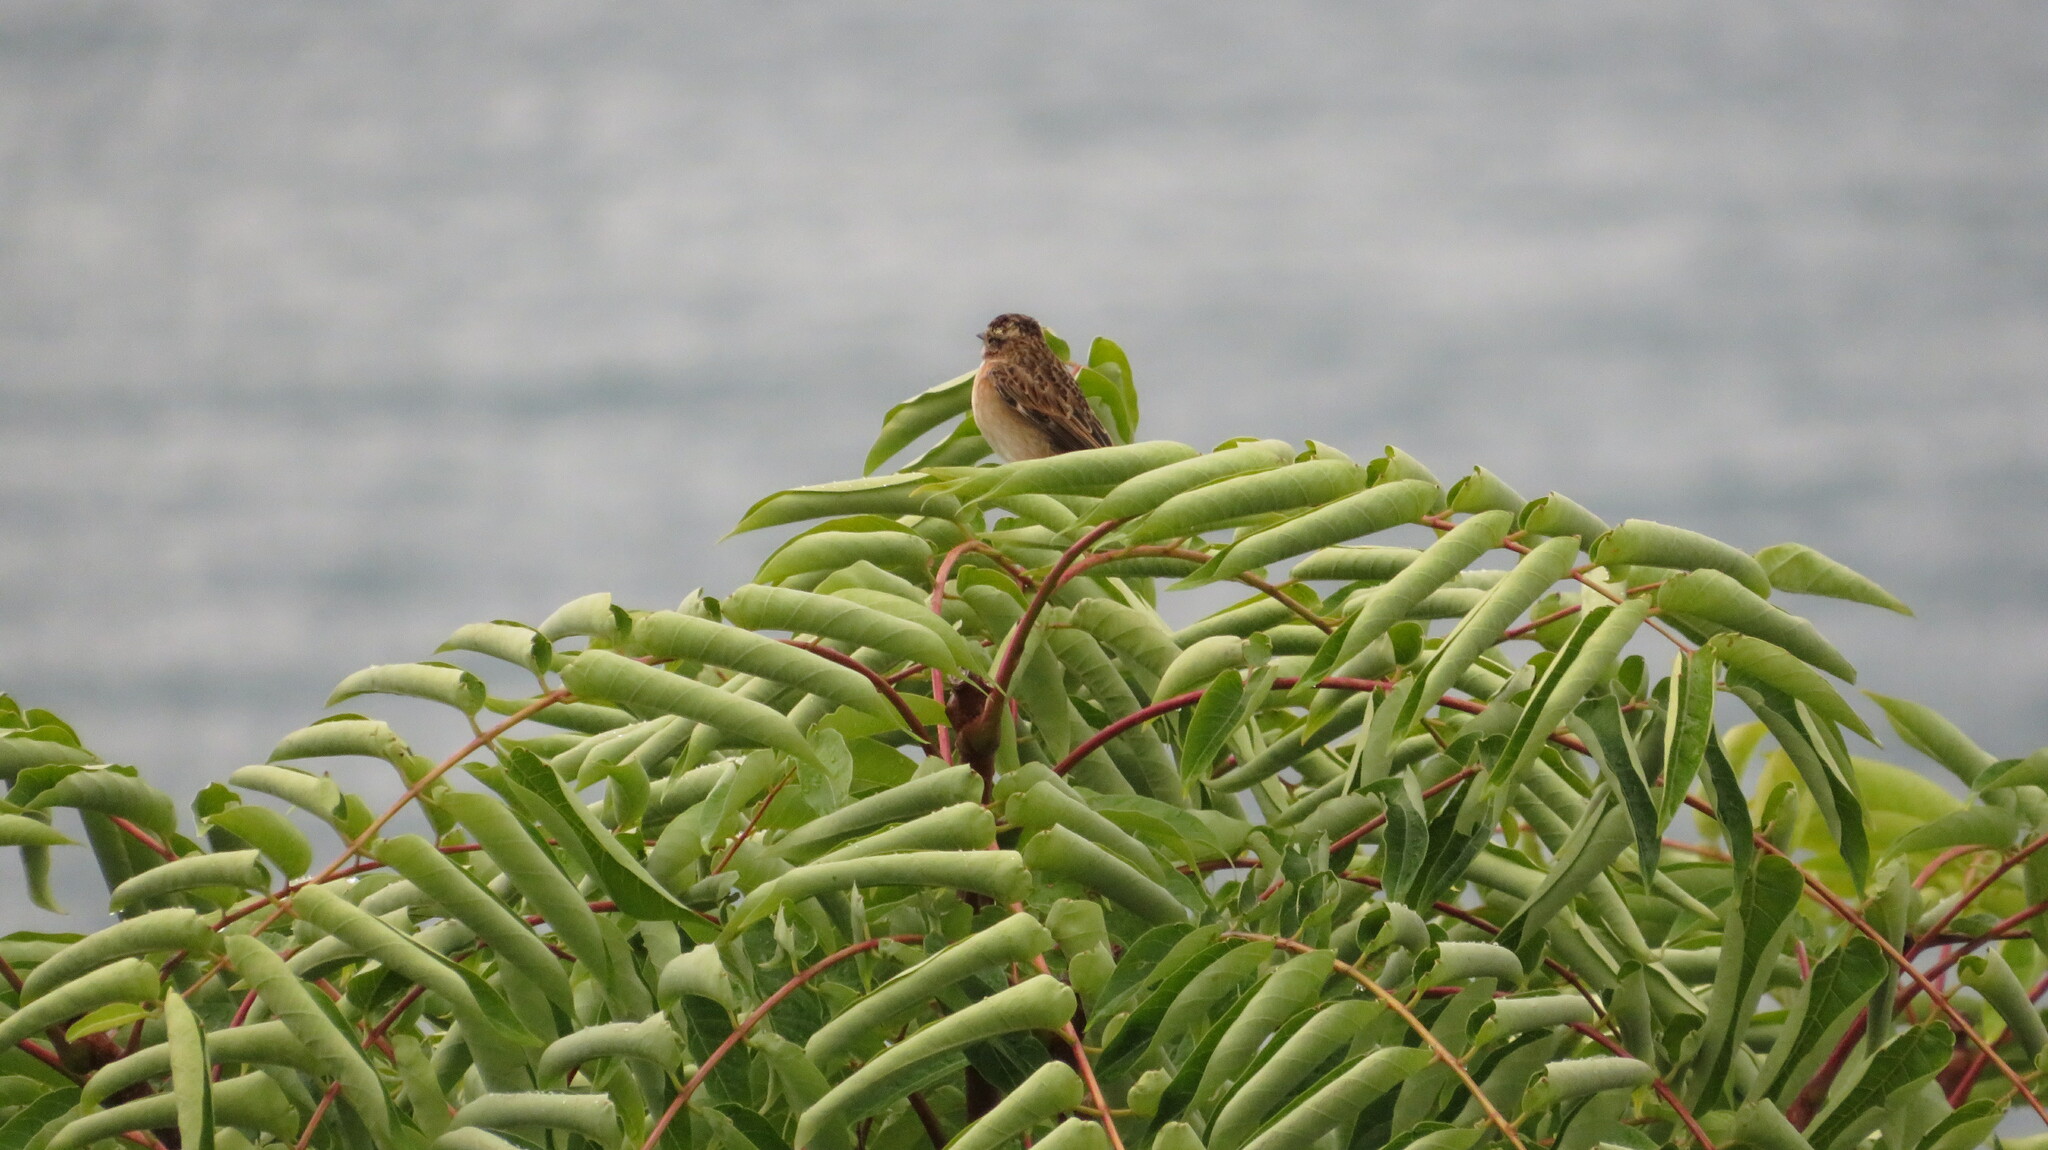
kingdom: Animalia
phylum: Chordata
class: Aves
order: Passeriformes
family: Muscicapidae
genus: Saxicola
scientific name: Saxicola rubetra
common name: Whinchat
